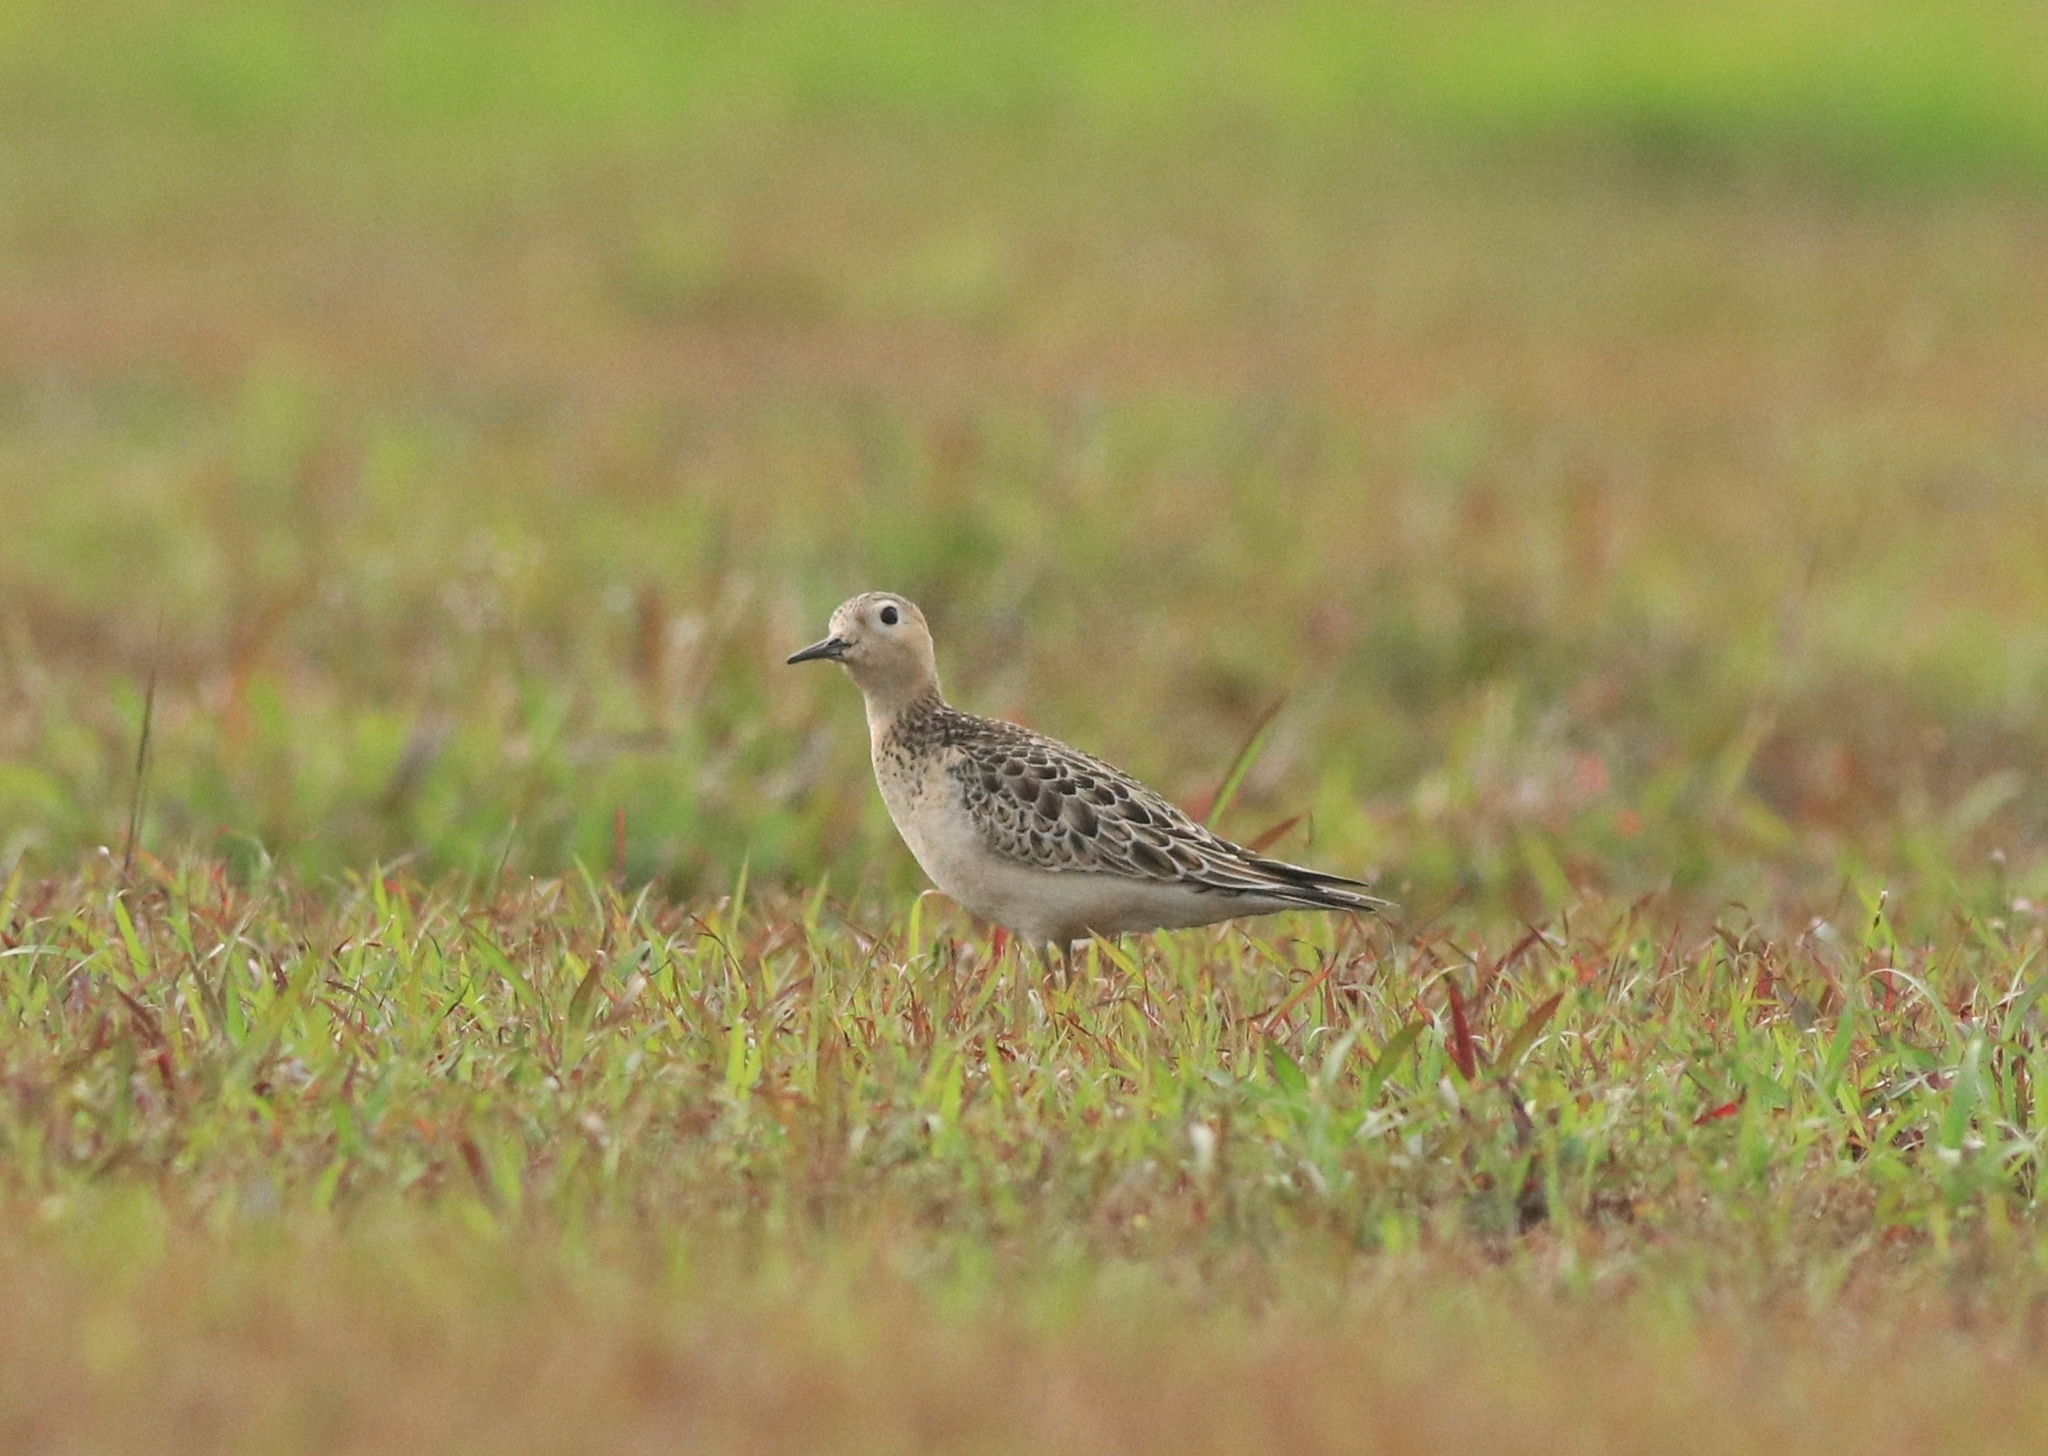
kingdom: Animalia
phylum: Chordata
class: Aves
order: Charadriiformes
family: Scolopacidae
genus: Calidris
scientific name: Calidris subruficollis
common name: Buff-breasted sandpiper
